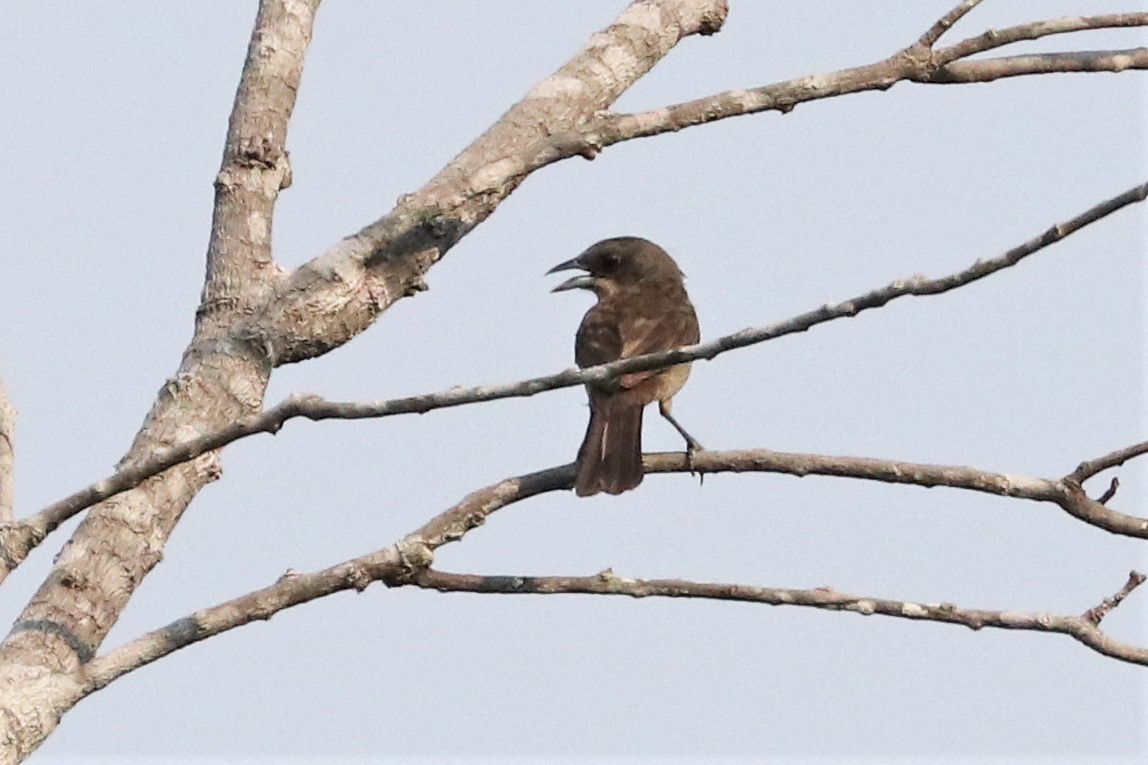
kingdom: Animalia
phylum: Chordata
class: Aves
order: Passeriformes
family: Thraupidae
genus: Tachyphonus
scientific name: Tachyphonus phoenicius
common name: Red-shouldered tanager
